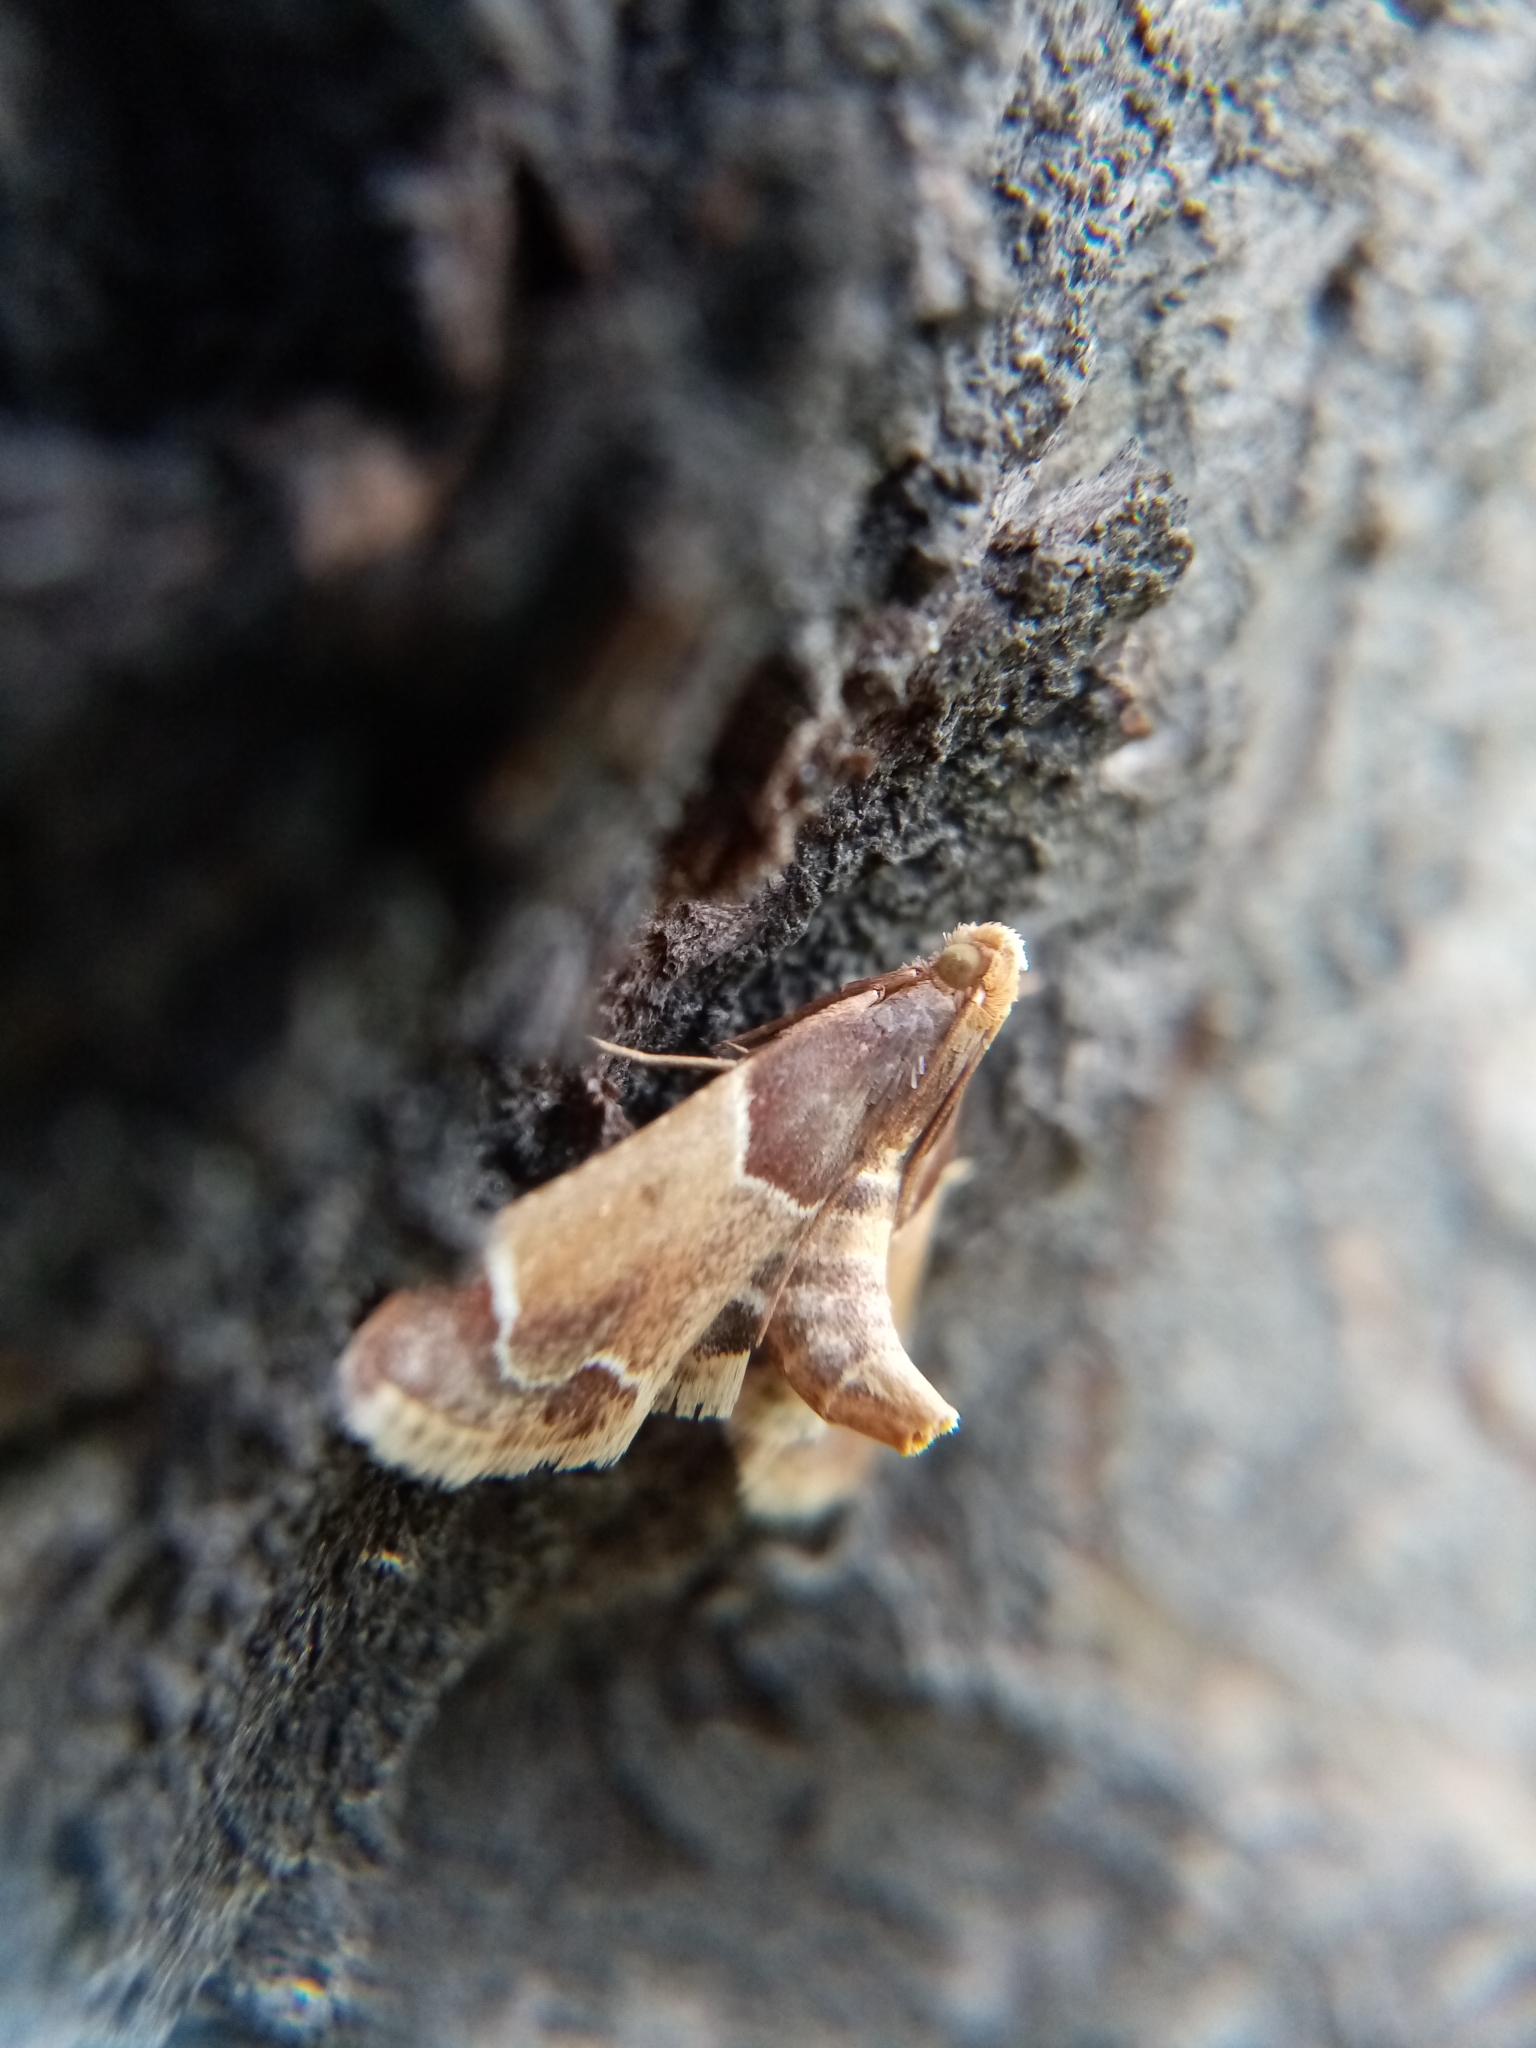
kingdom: Animalia
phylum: Arthropoda
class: Insecta
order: Lepidoptera
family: Pyralidae
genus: Pyralis
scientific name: Pyralis farinalis
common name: Meal moth
